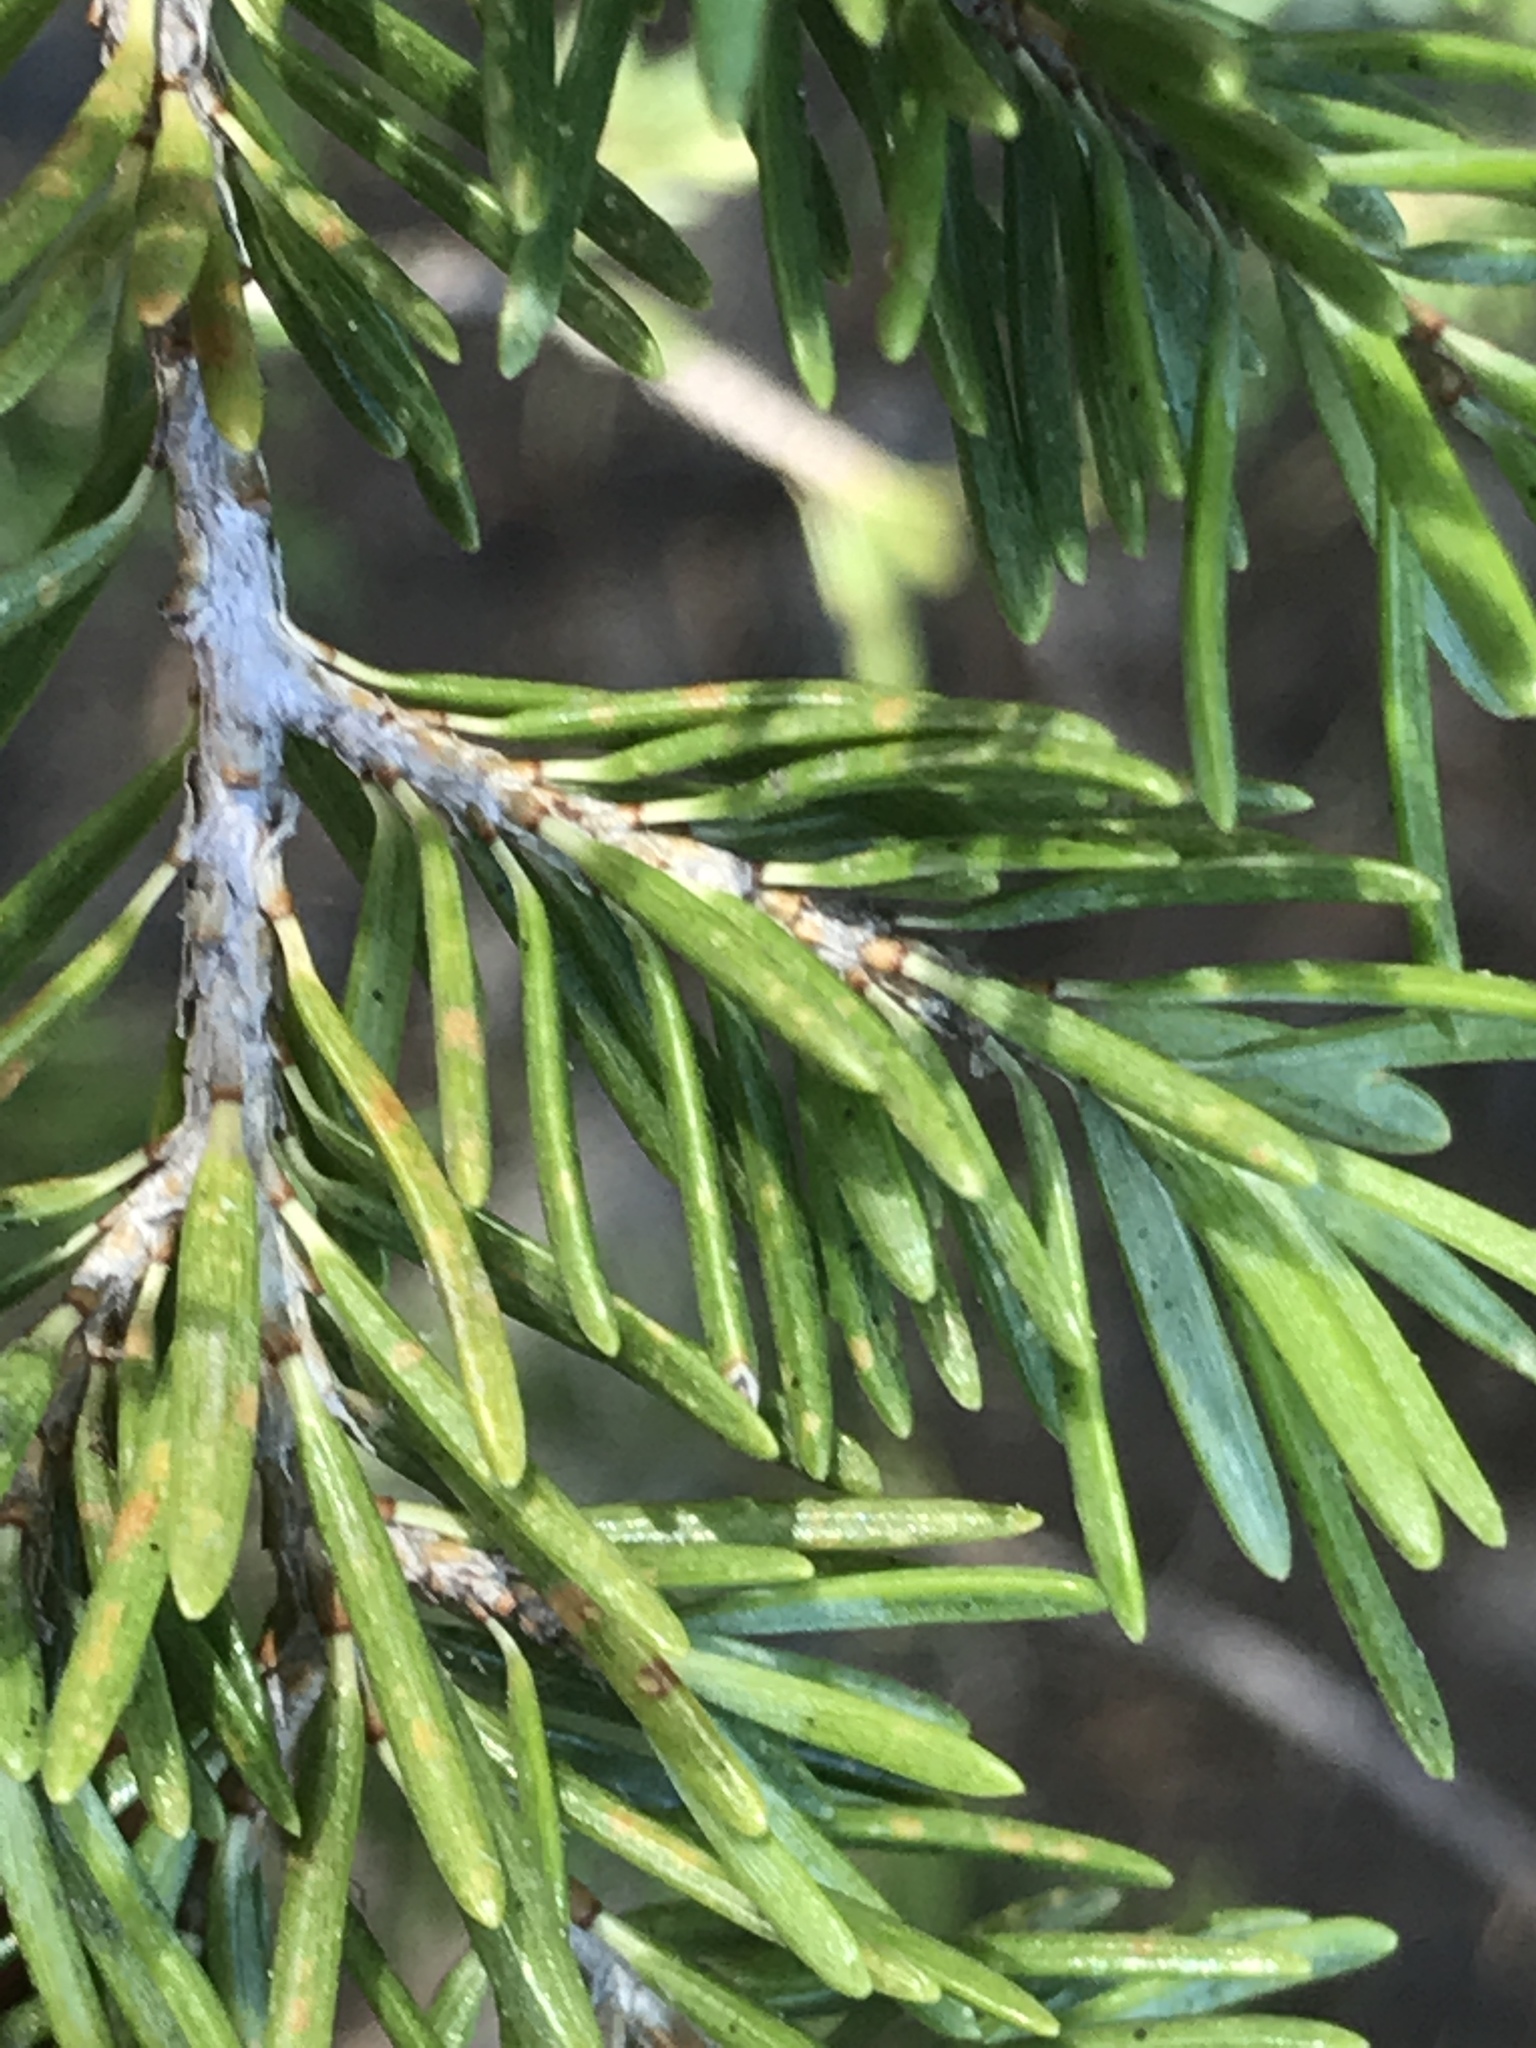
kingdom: Plantae
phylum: Tracheophyta
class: Pinopsida
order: Pinales
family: Pinaceae
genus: Tsuga
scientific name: Tsuga mertensiana
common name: Mountain hemlock
